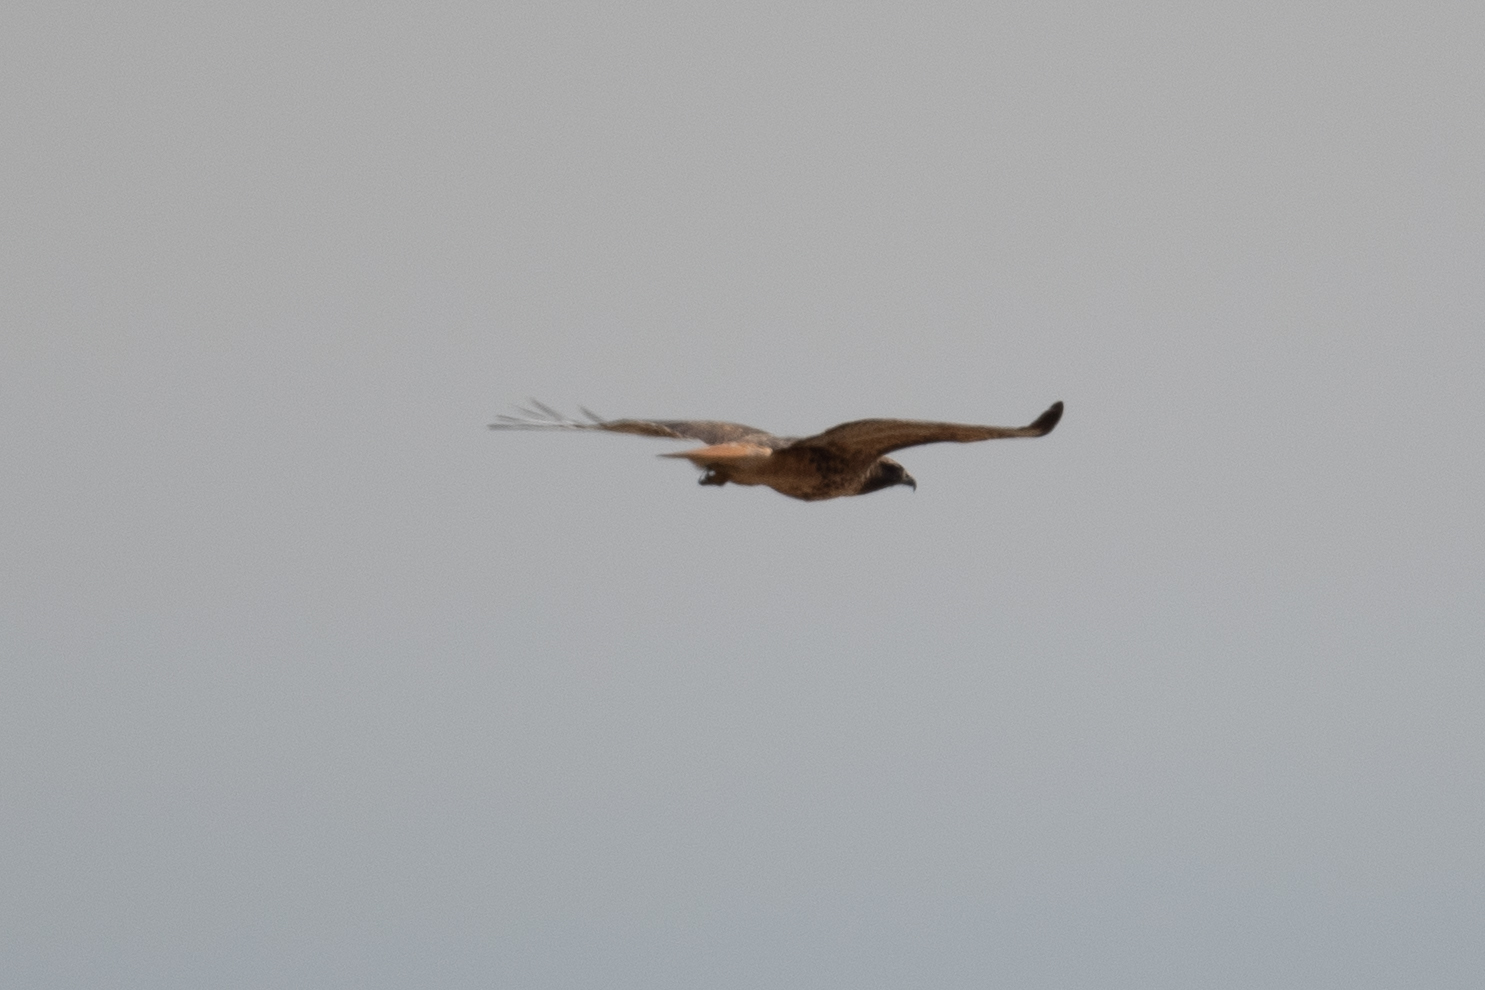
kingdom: Animalia
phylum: Chordata
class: Aves
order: Accipitriformes
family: Accipitridae
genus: Buteo
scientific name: Buteo jamaicensis
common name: Red-tailed hawk
